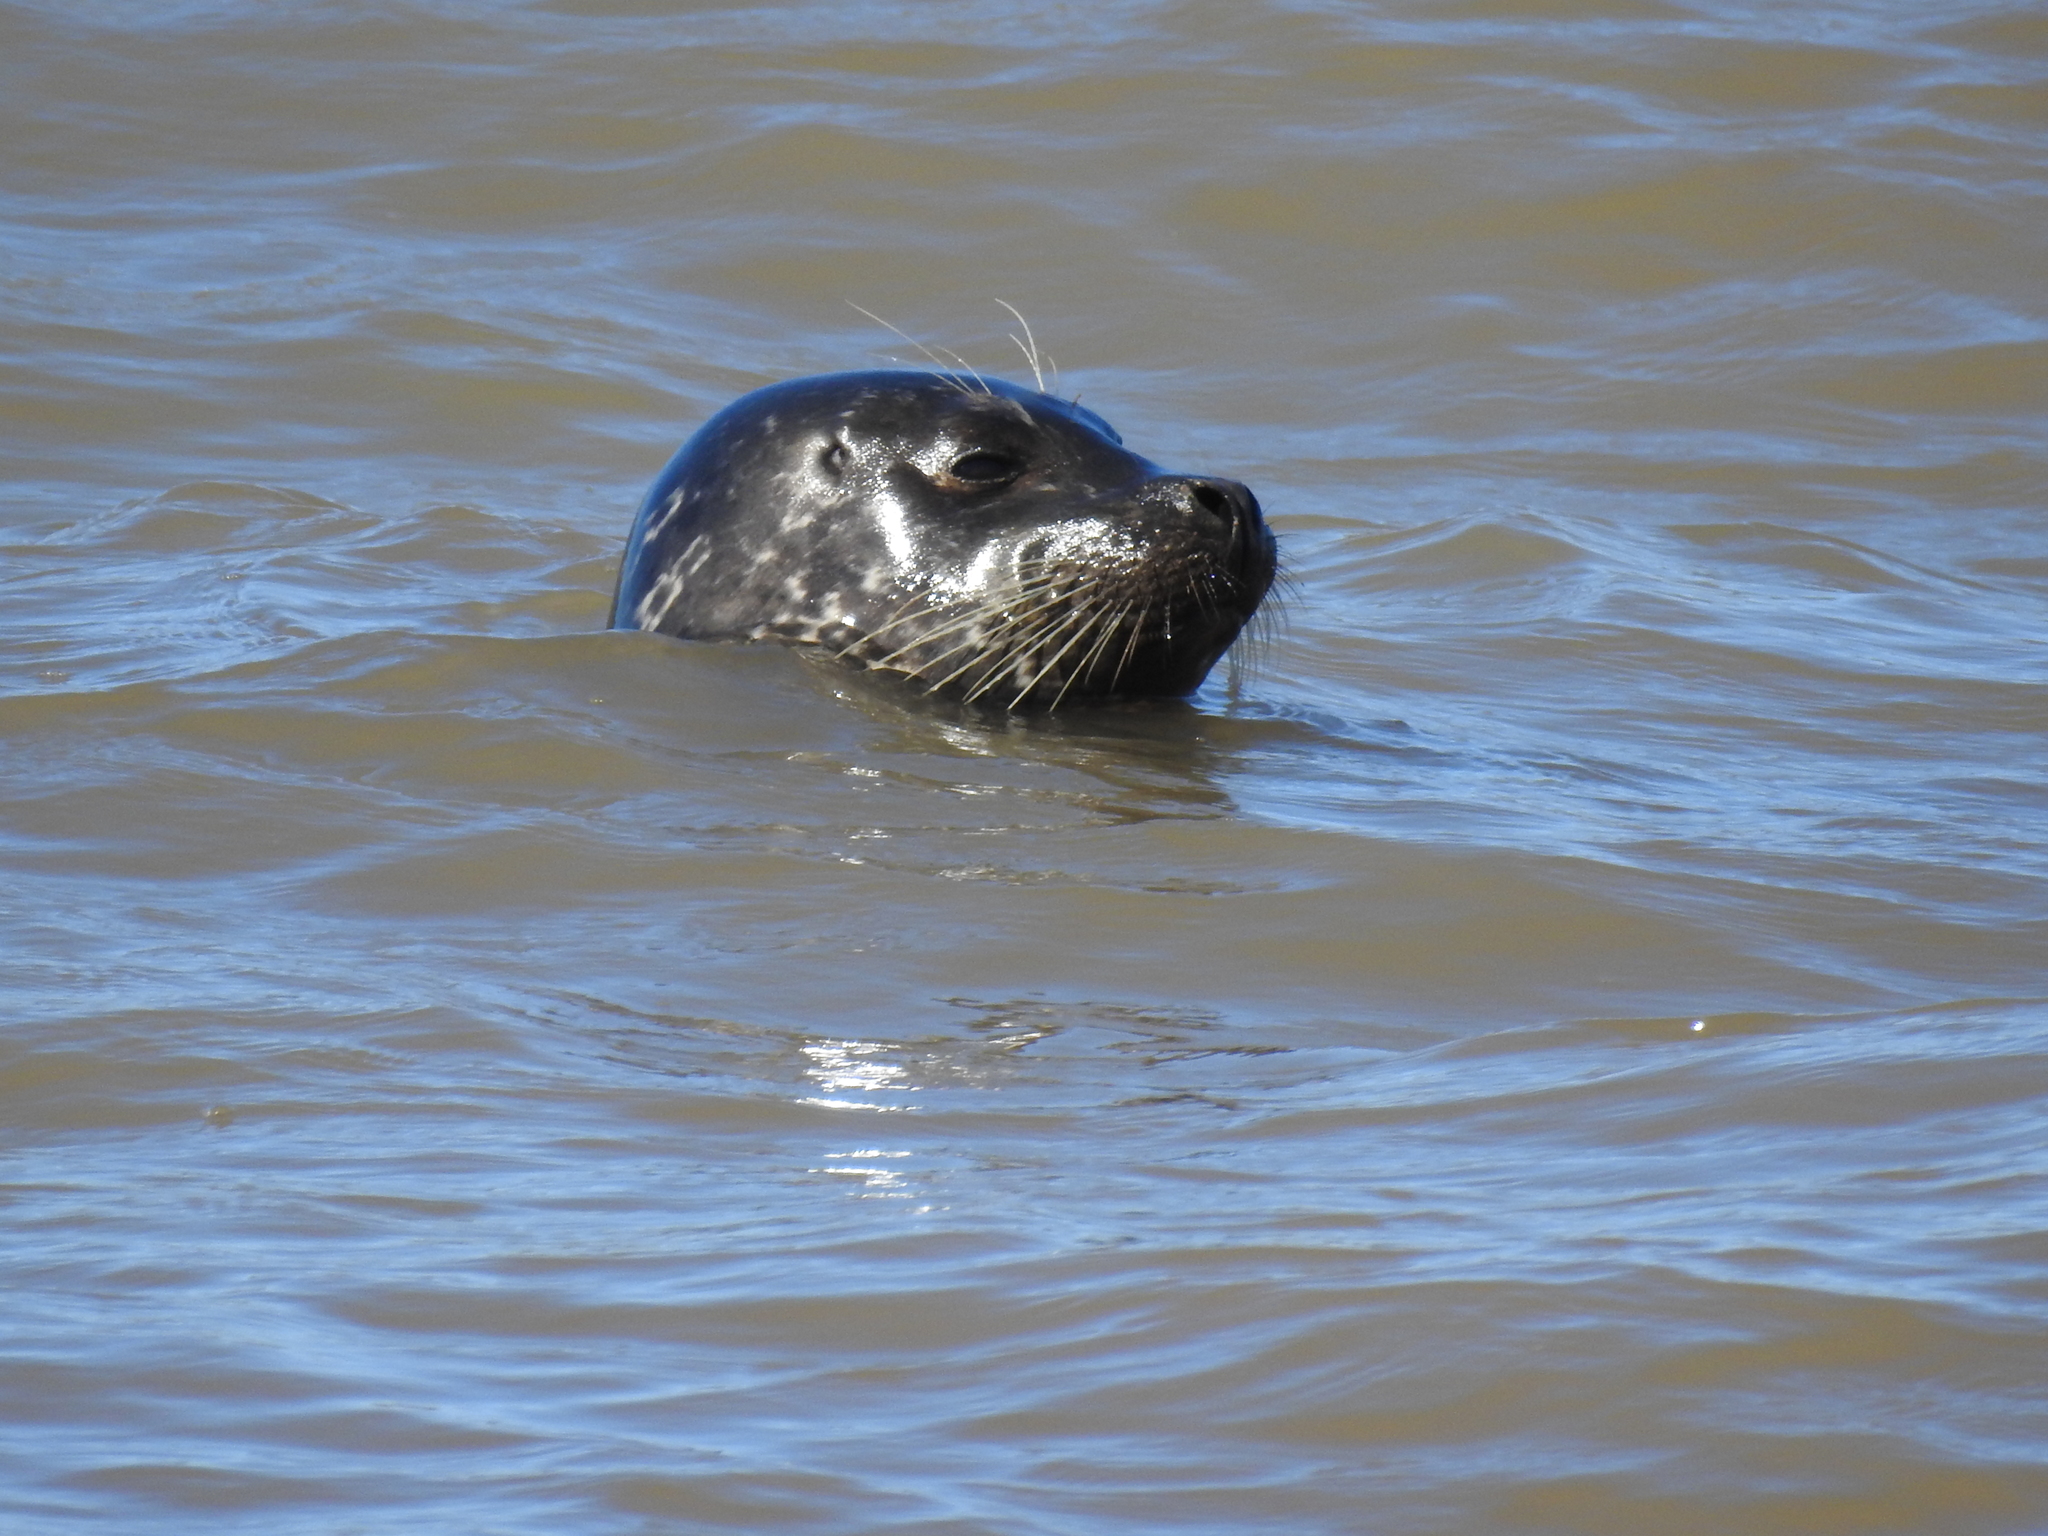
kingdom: Animalia
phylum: Chordata
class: Mammalia
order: Carnivora
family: Phocidae
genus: Phoca
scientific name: Phoca vitulina
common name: Harbor seal
